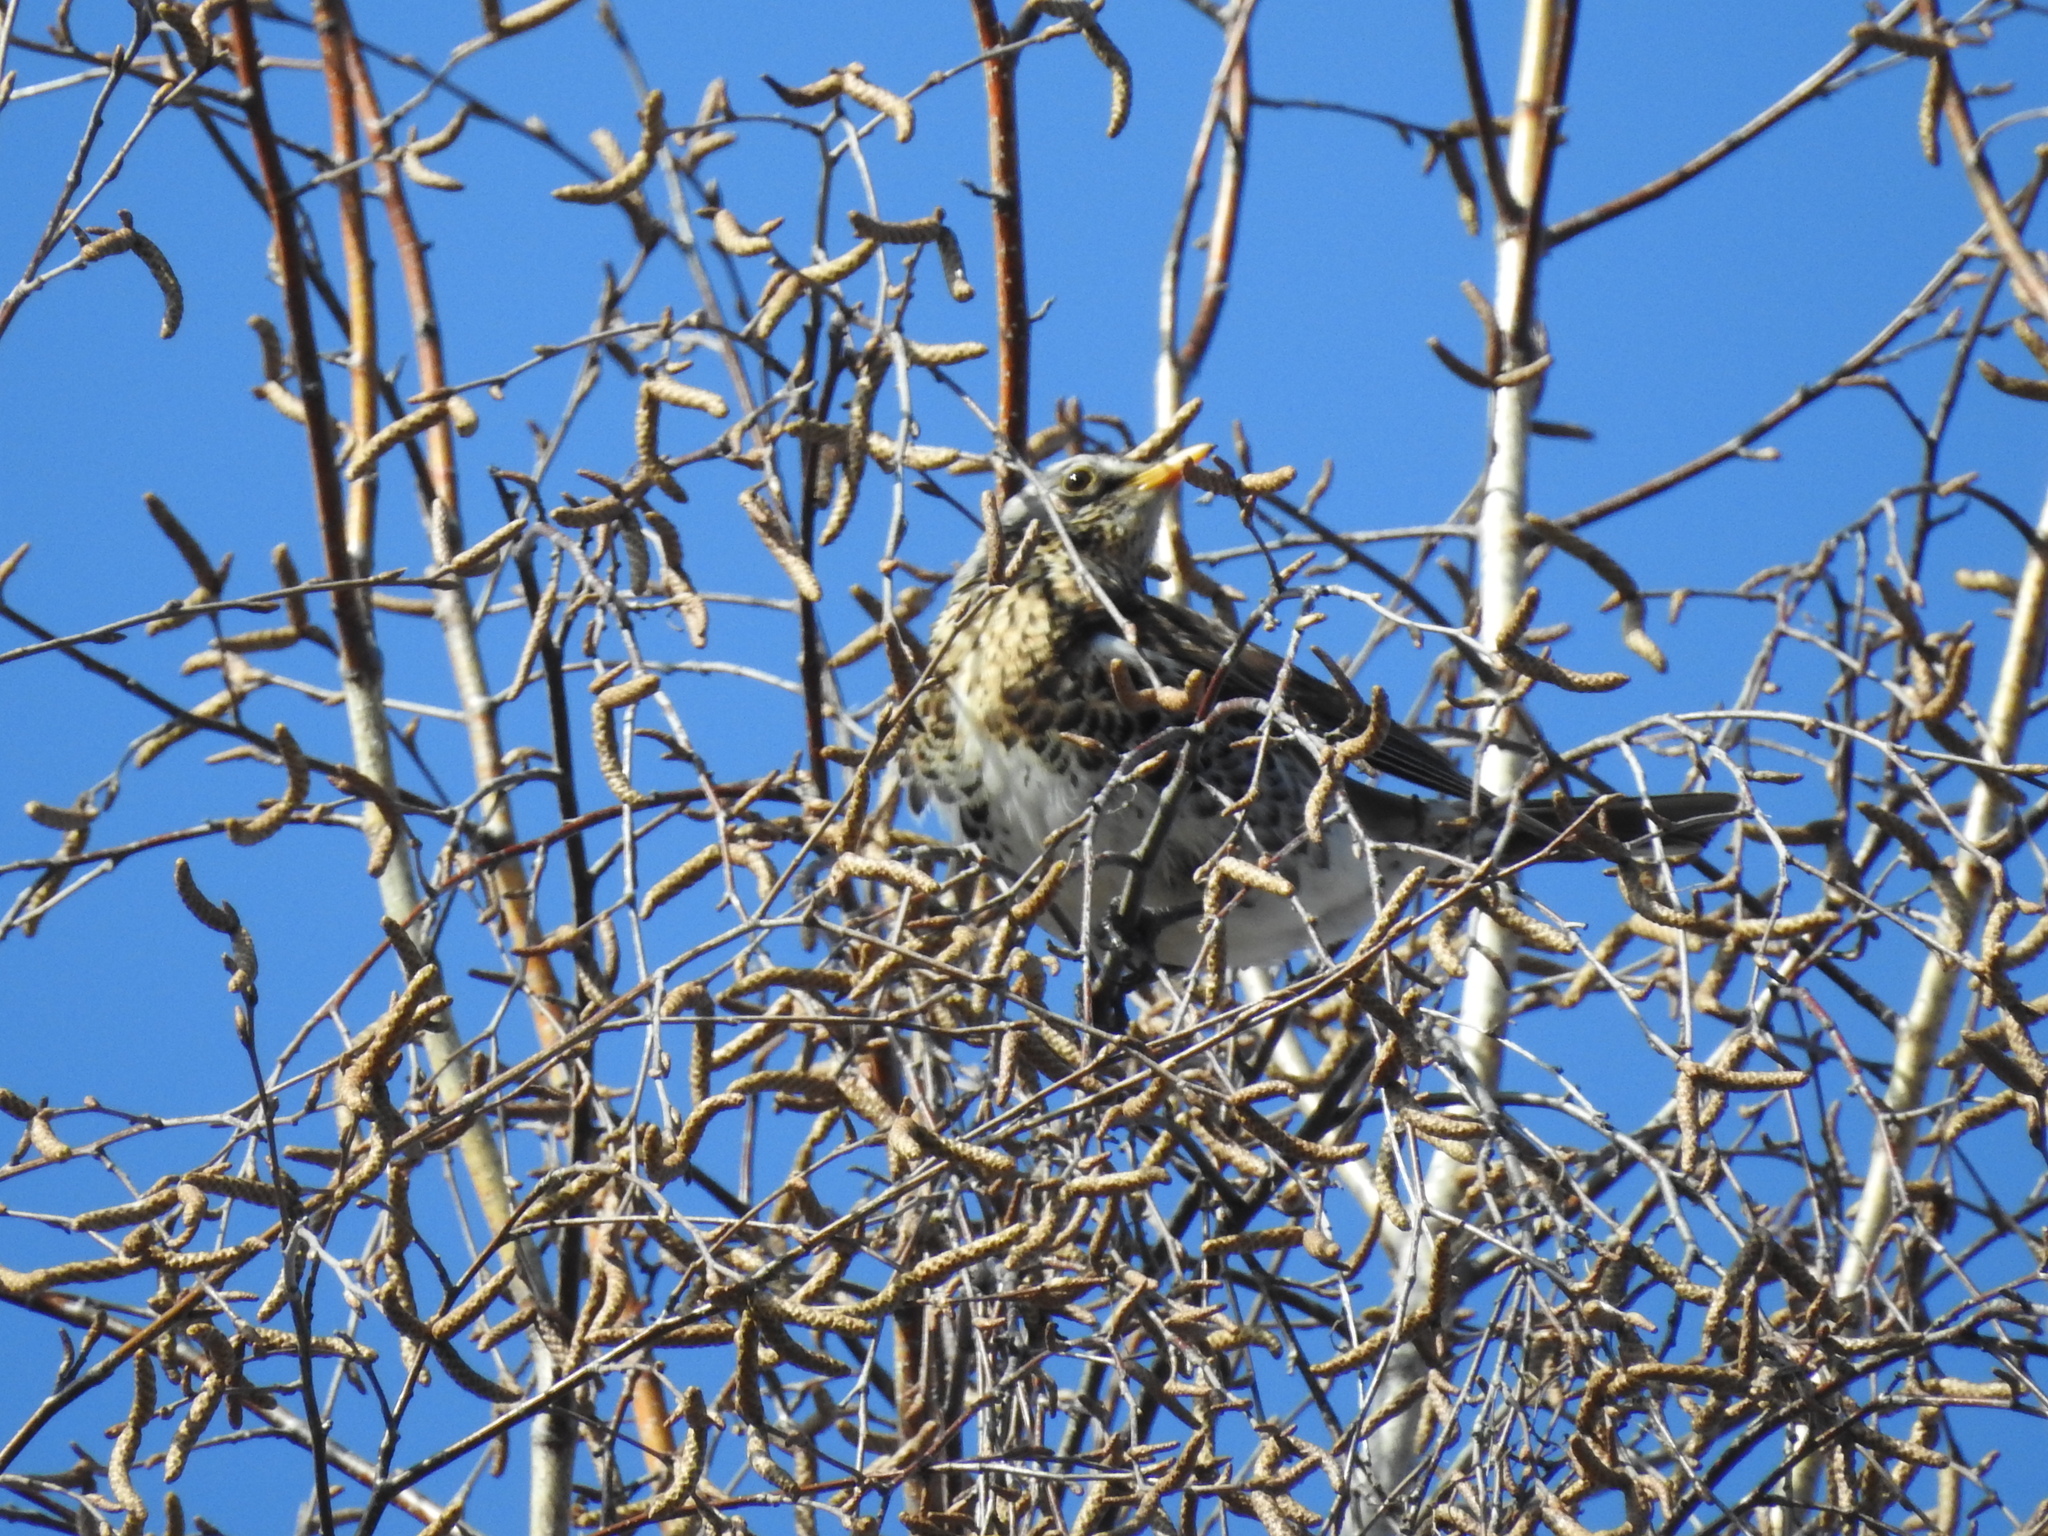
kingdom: Animalia
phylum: Chordata
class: Aves
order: Passeriformes
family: Turdidae
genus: Turdus
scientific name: Turdus pilaris
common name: Fieldfare
